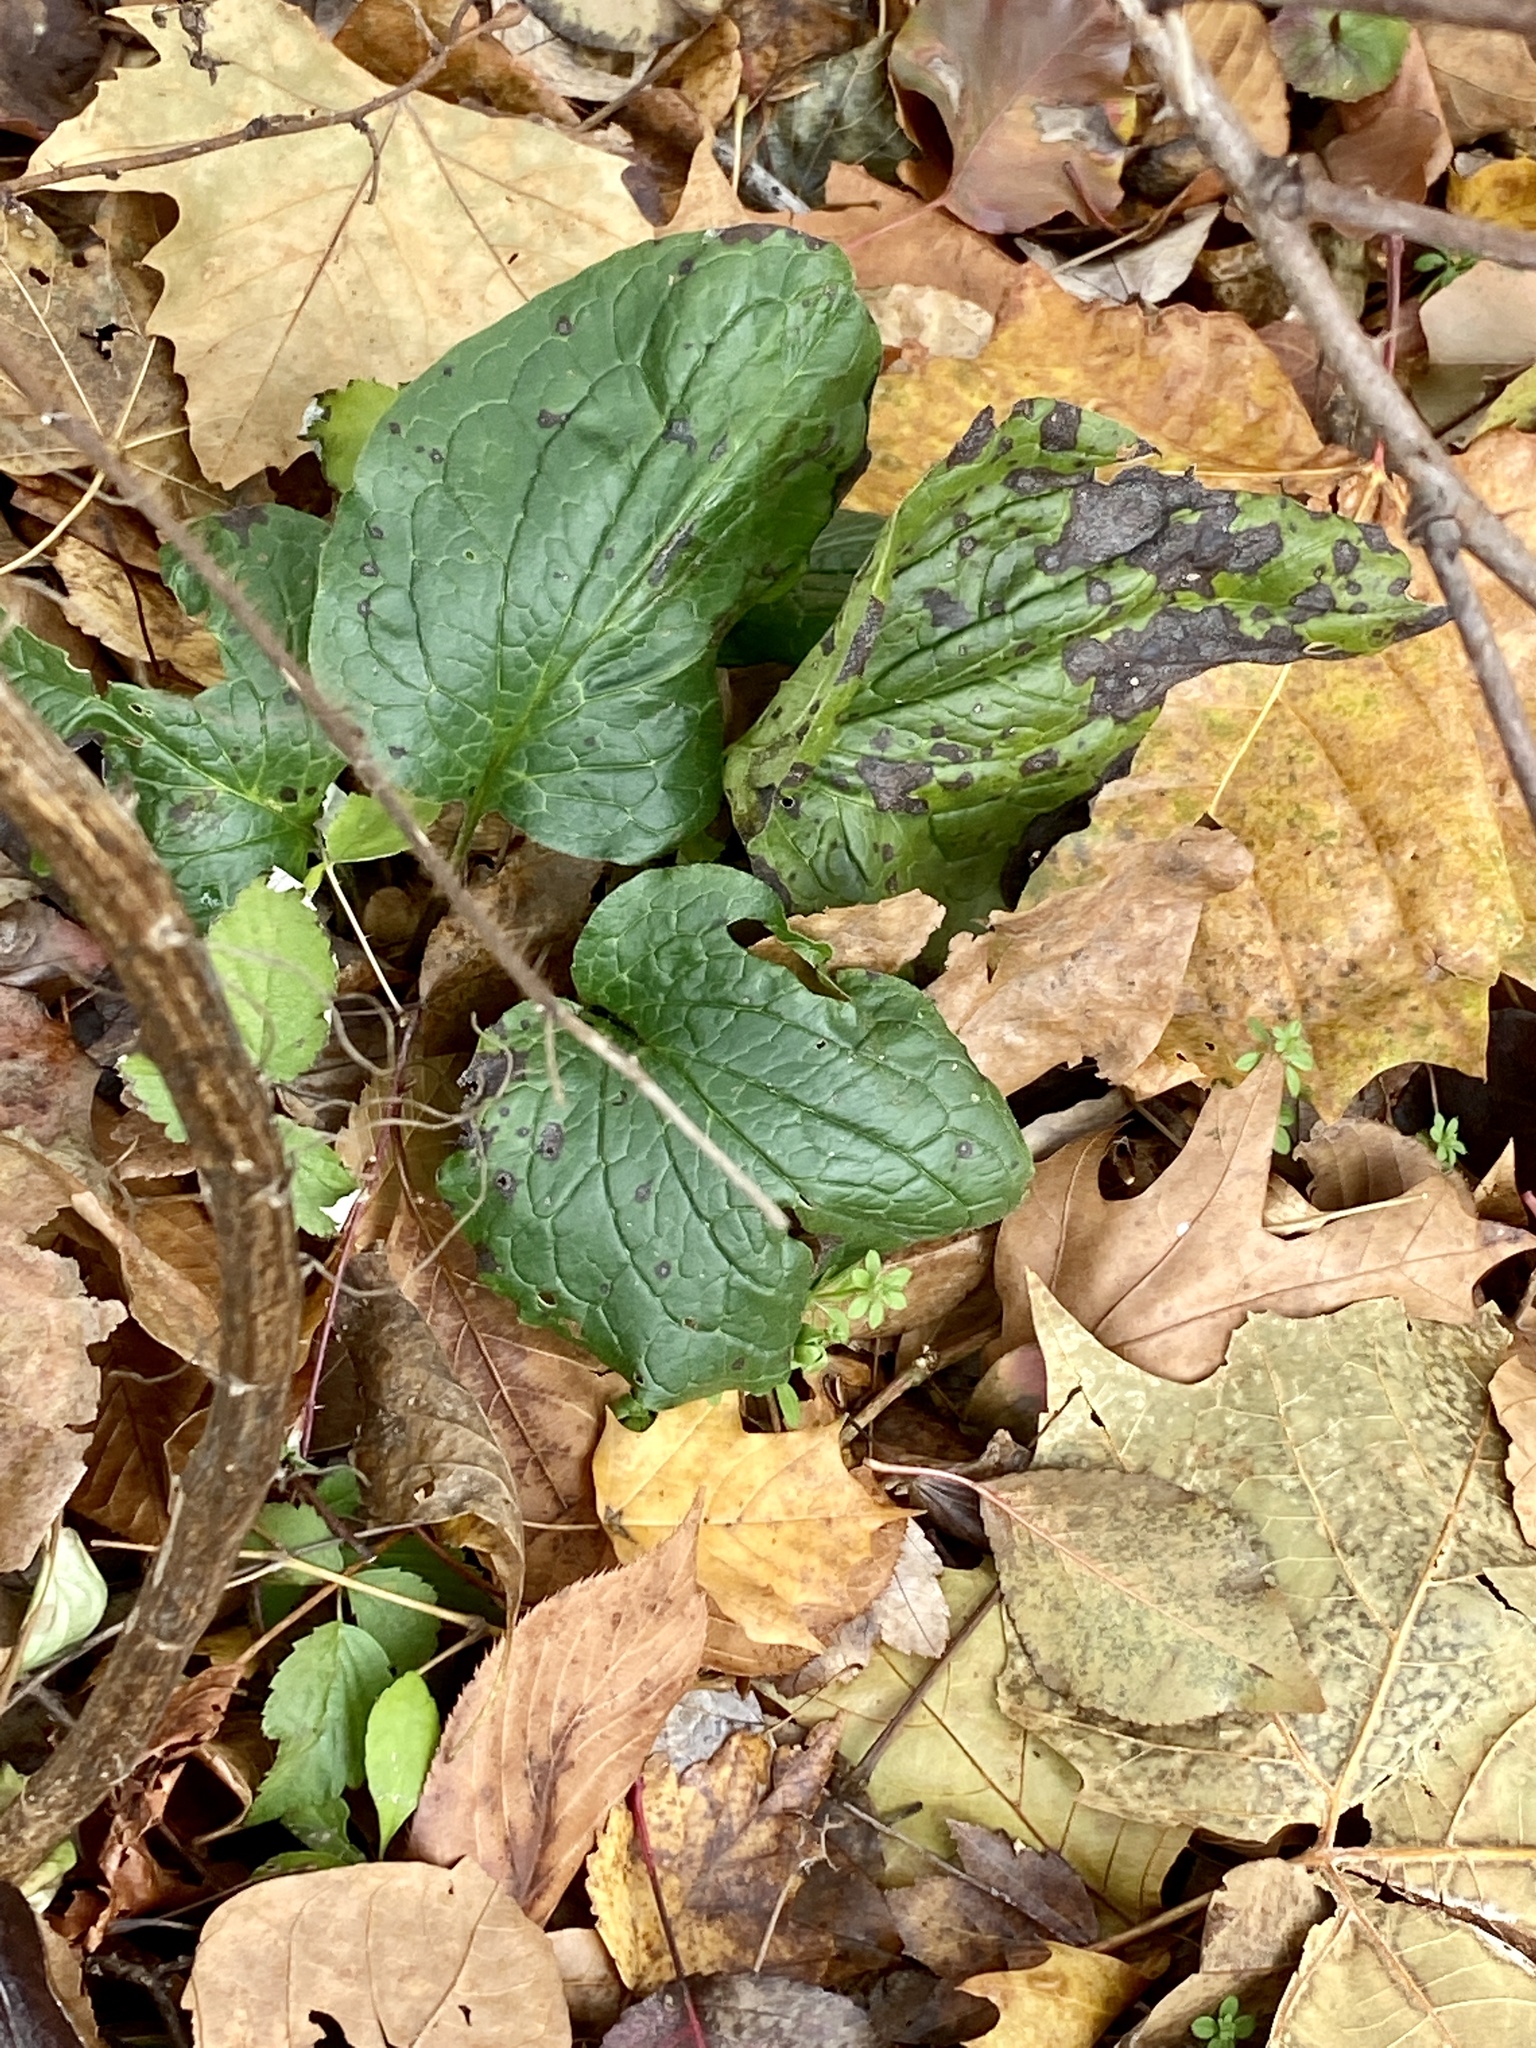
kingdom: Plantae
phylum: Tracheophyta
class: Magnoliopsida
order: Boraginales
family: Boraginaceae
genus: Hackelia
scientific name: Hackelia virginiana
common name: Beggar's-lice
